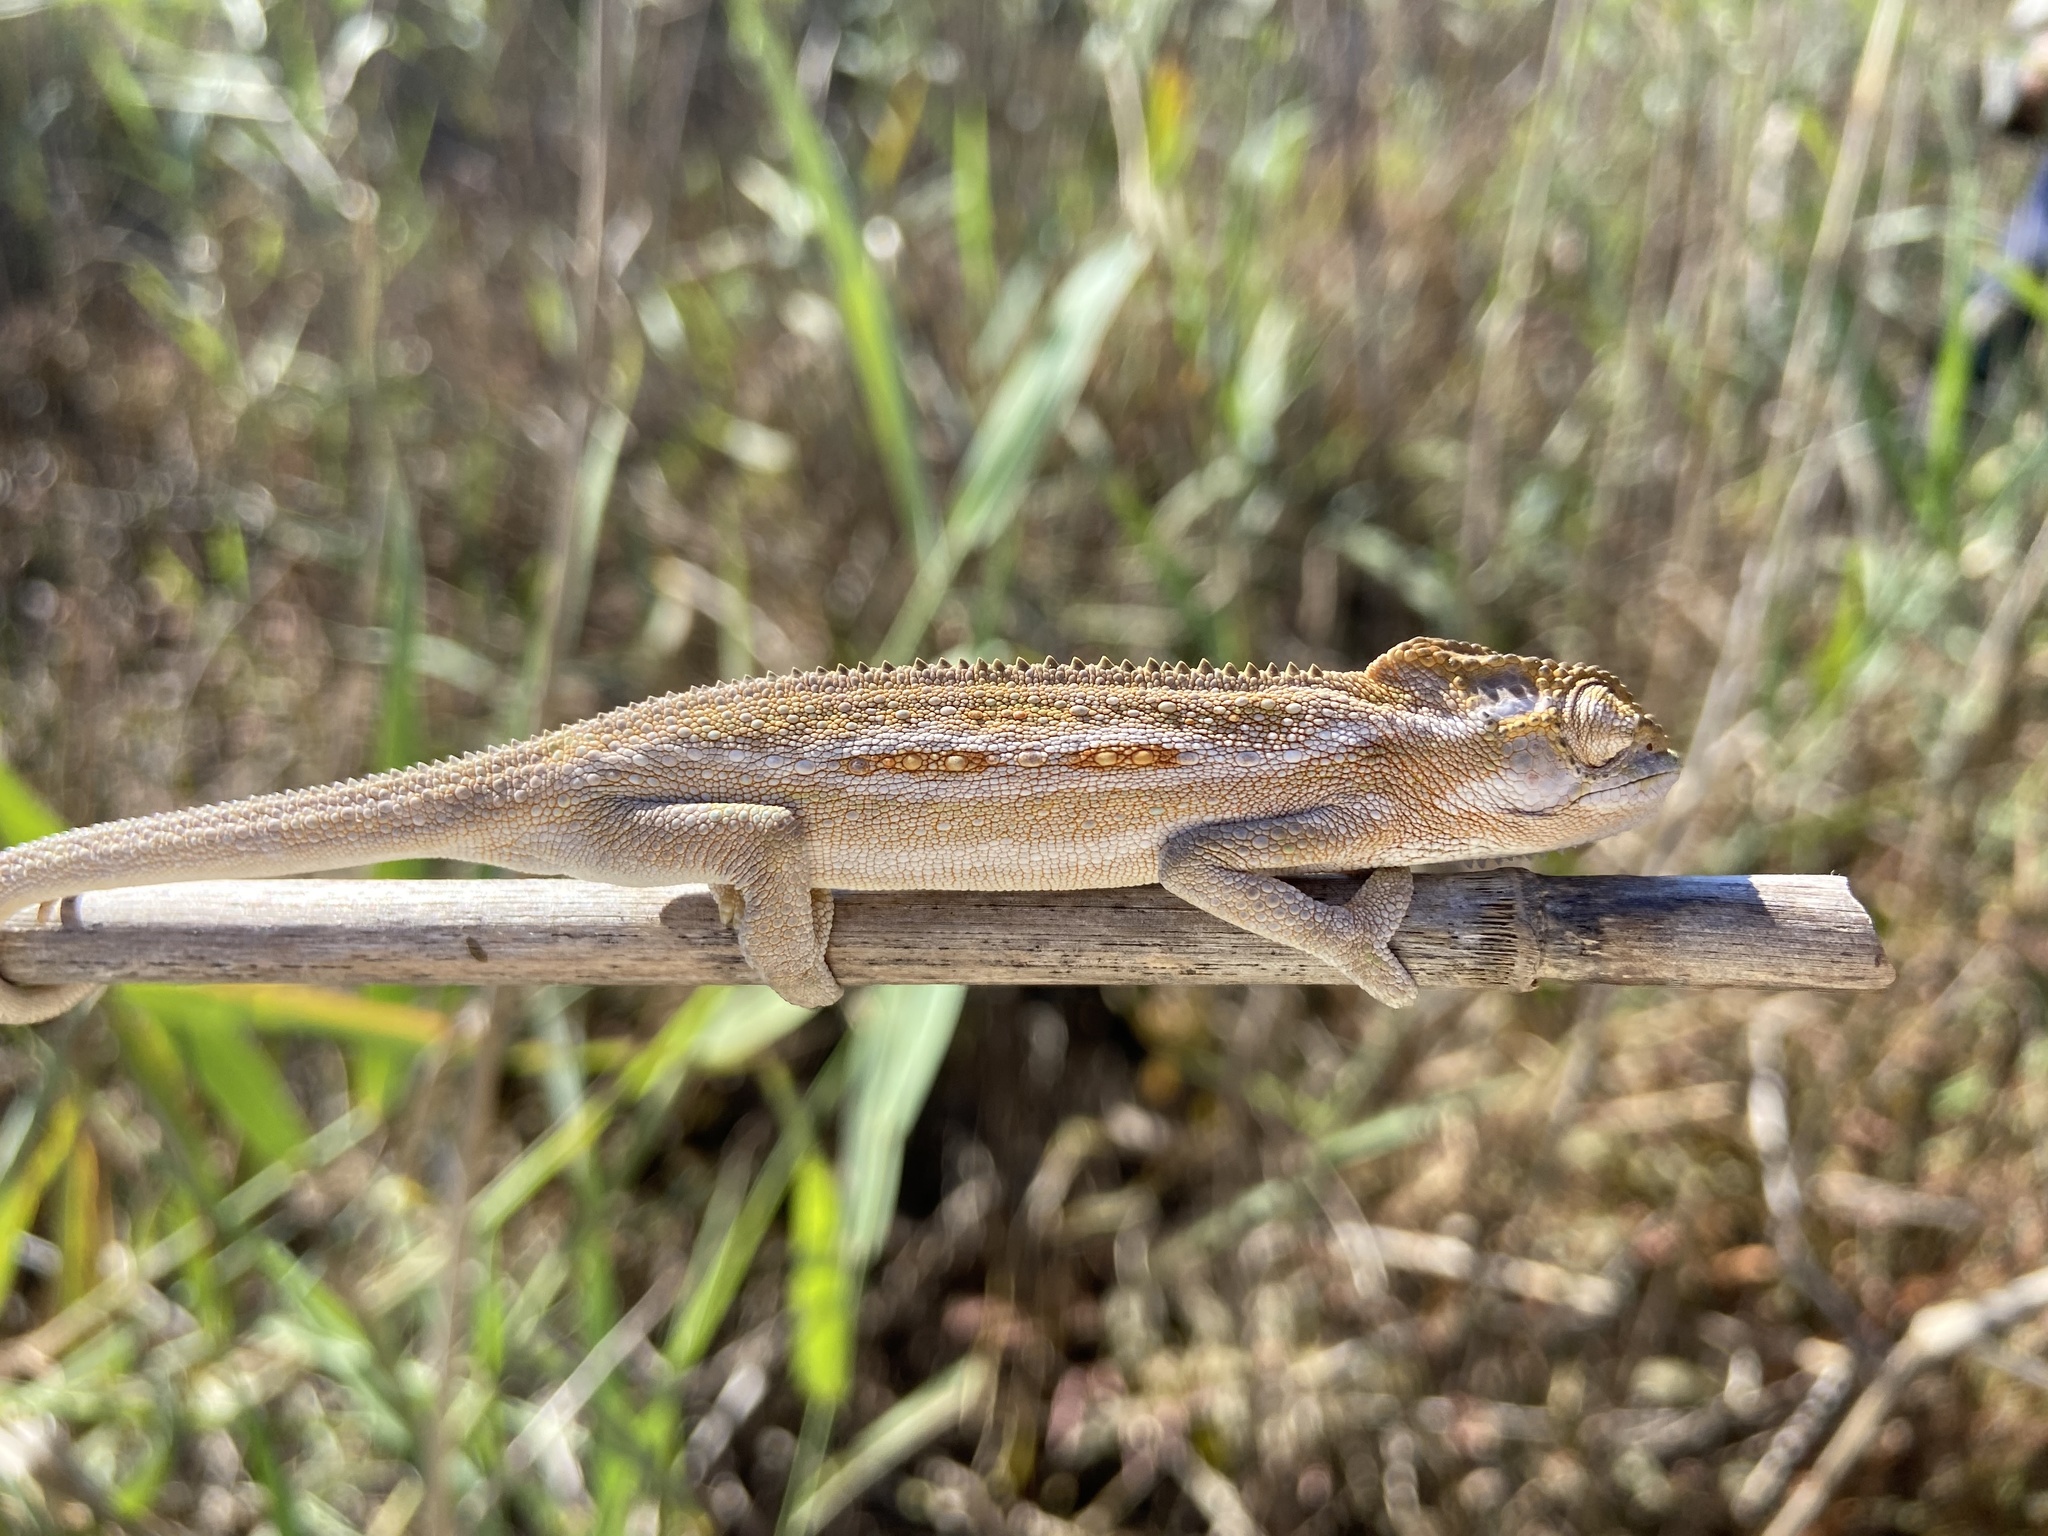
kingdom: Animalia
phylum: Chordata
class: Squamata
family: Chamaeleonidae
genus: Bradypodion
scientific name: Bradypodion pumilum
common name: Cape dwarf chameleon
